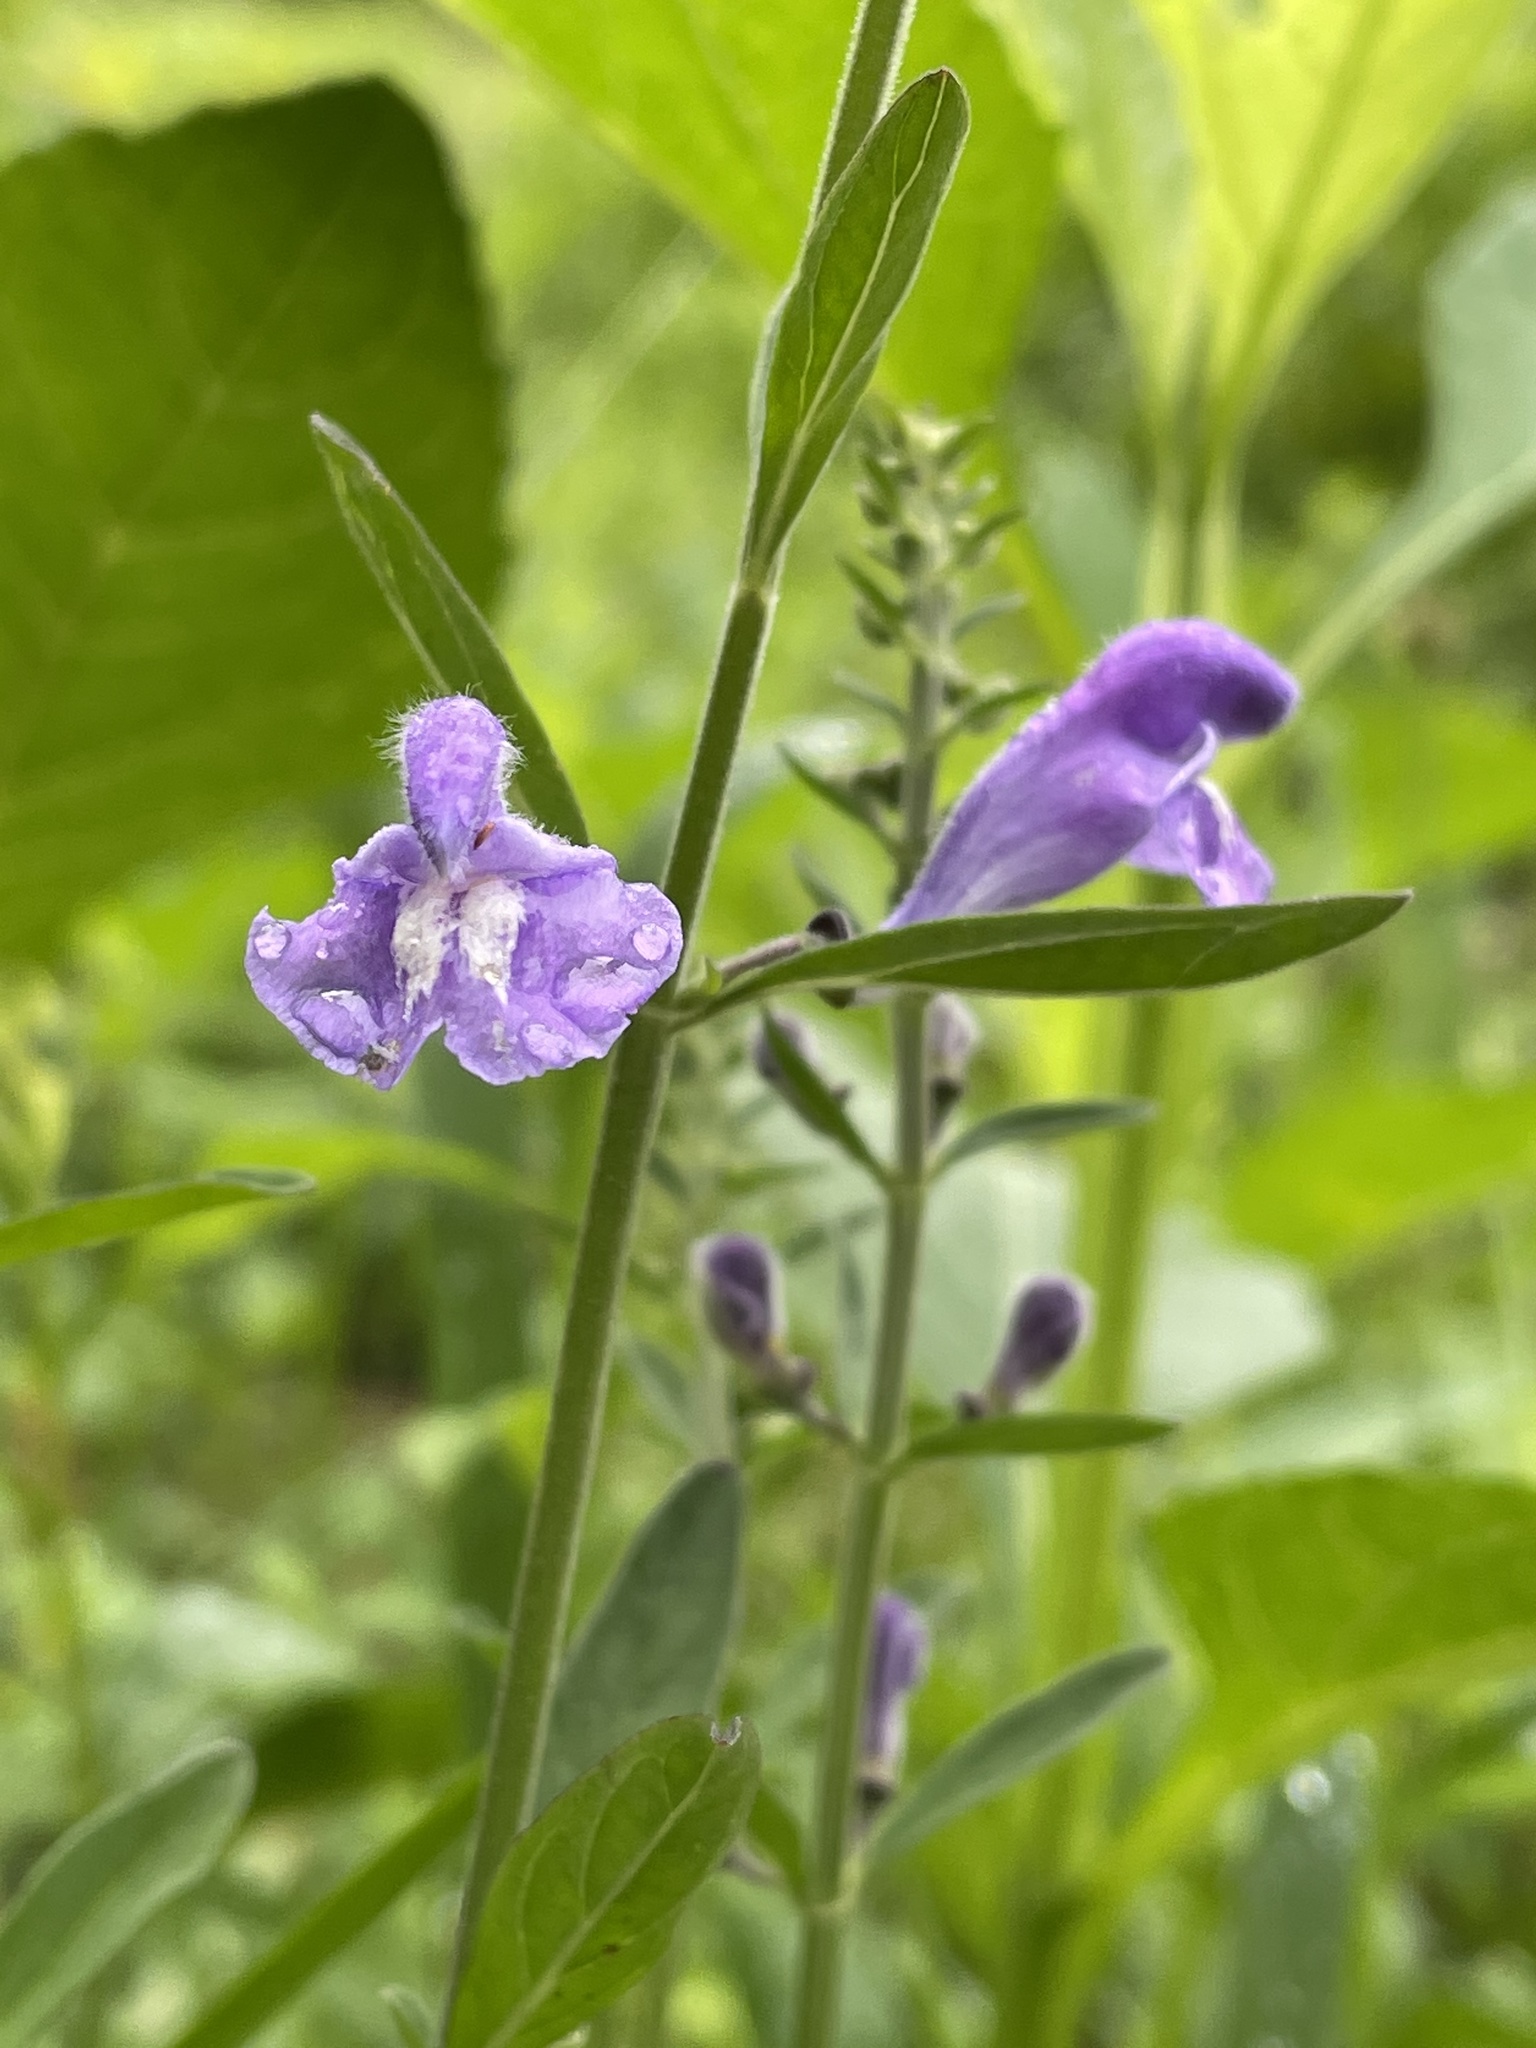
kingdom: Plantae
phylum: Tracheophyta
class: Magnoliopsida
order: Lamiales
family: Lamiaceae
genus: Scutellaria
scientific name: Scutellaria integrifolia
